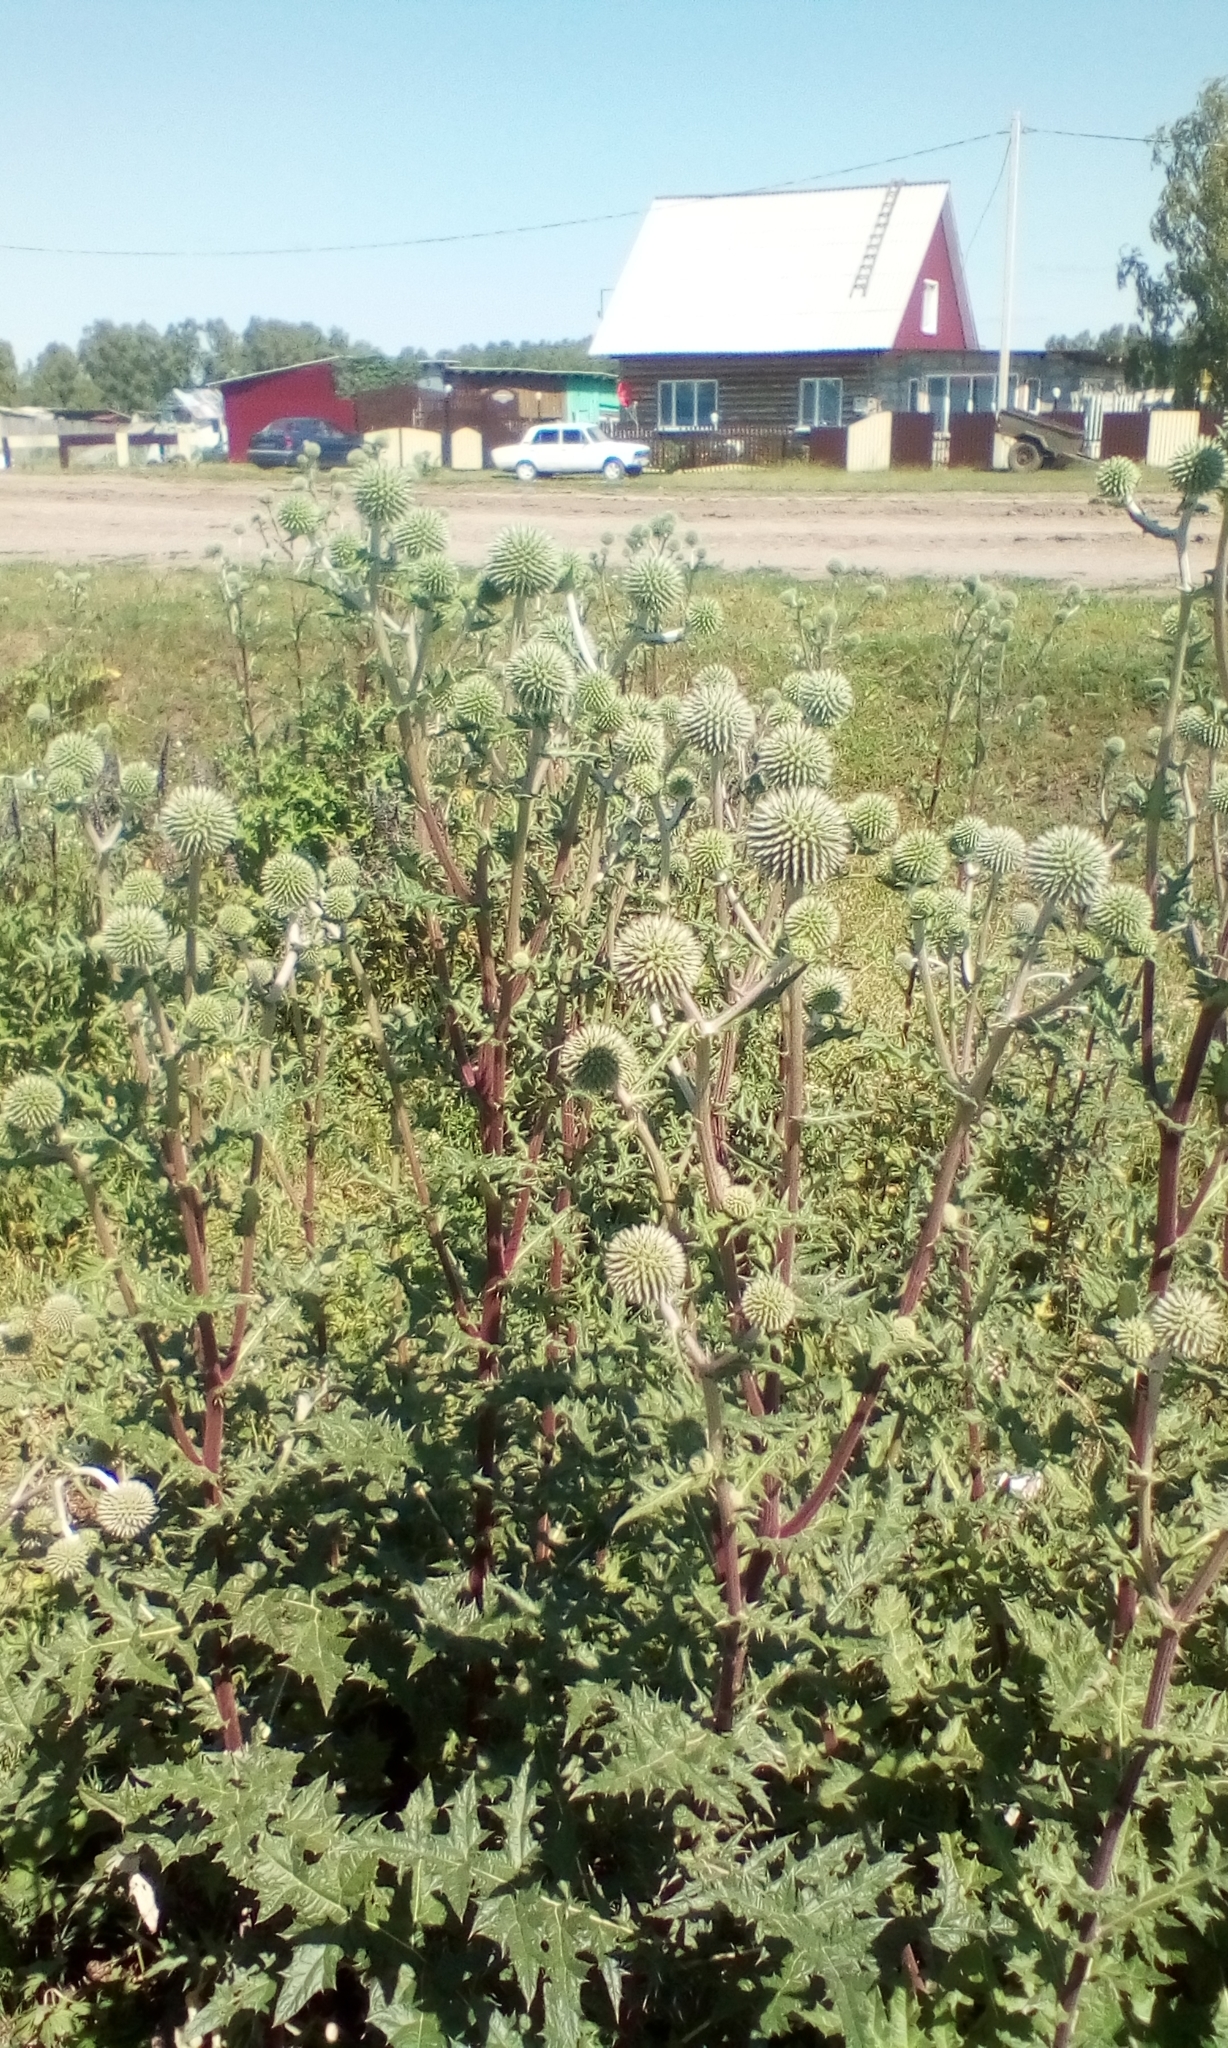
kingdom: Plantae
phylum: Tracheophyta
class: Magnoliopsida
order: Asterales
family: Asteraceae
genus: Echinops
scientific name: Echinops sphaerocephalus
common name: Glandular globe-thistle
